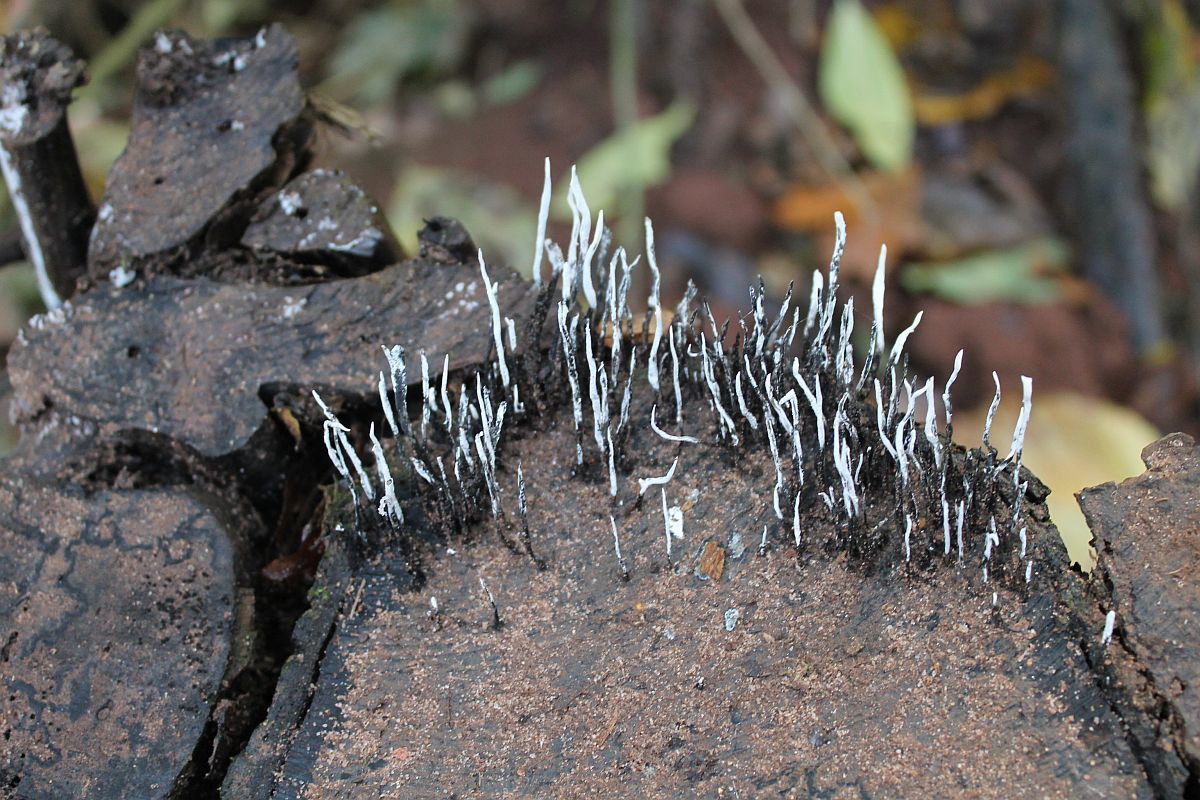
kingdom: Fungi
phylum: Ascomycota
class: Sordariomycetes
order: Xylariales
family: Xylariaceae
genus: Xylaria
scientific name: Xylaria hypoxylon
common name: Candle-snuff fungus
